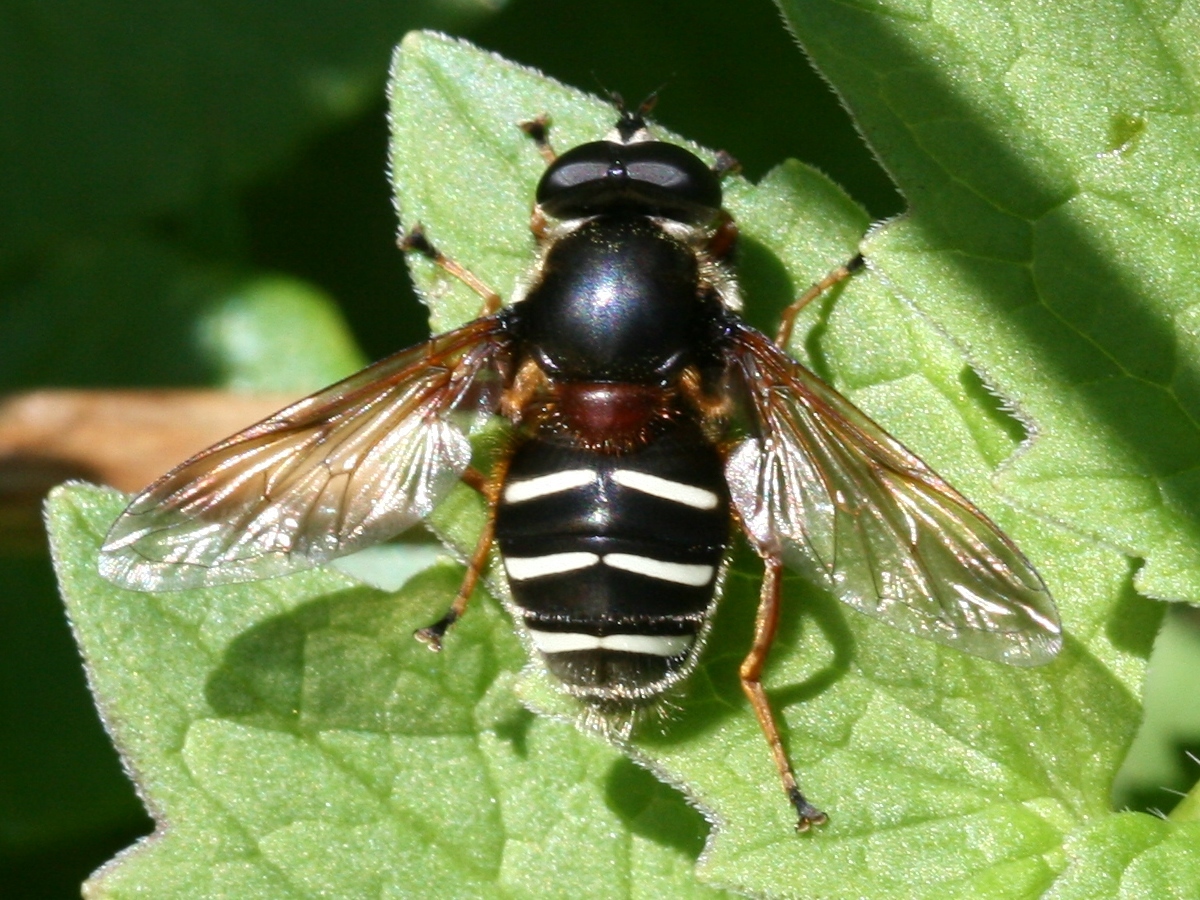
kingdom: Animalia
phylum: Arthropoda
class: Insecta
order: Diptera
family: Syrphidae
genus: Sericomyia
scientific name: Sericomyia lappona
